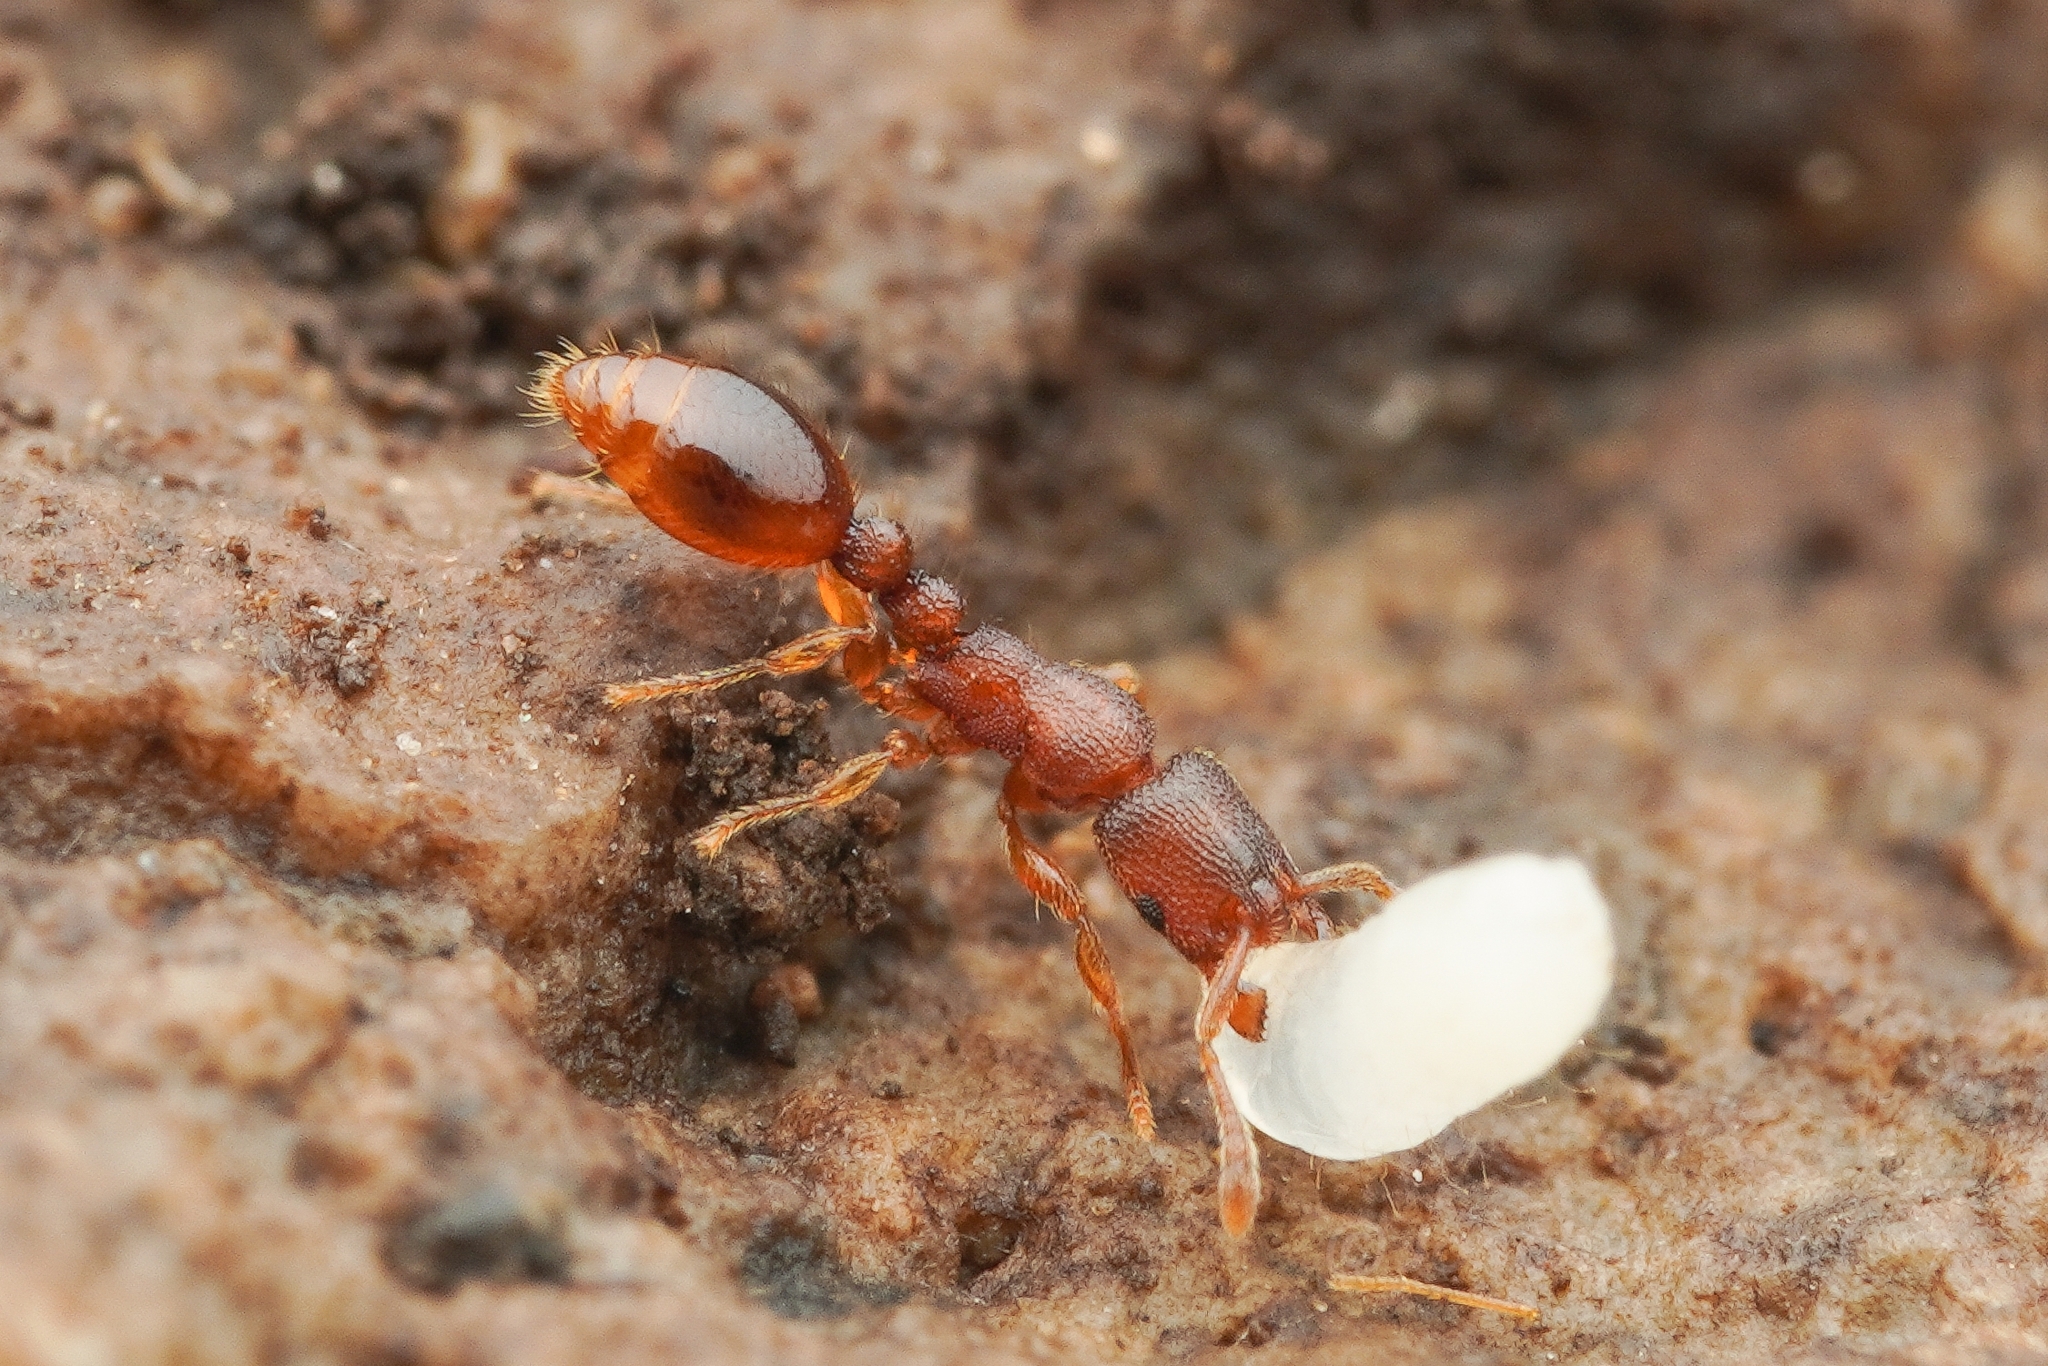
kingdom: Animalia
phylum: Arthropoda
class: Insecta
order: Hymenoptera
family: Formicidae
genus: Vollenhovia
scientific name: Vollenhovia emeryi
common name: Ant
